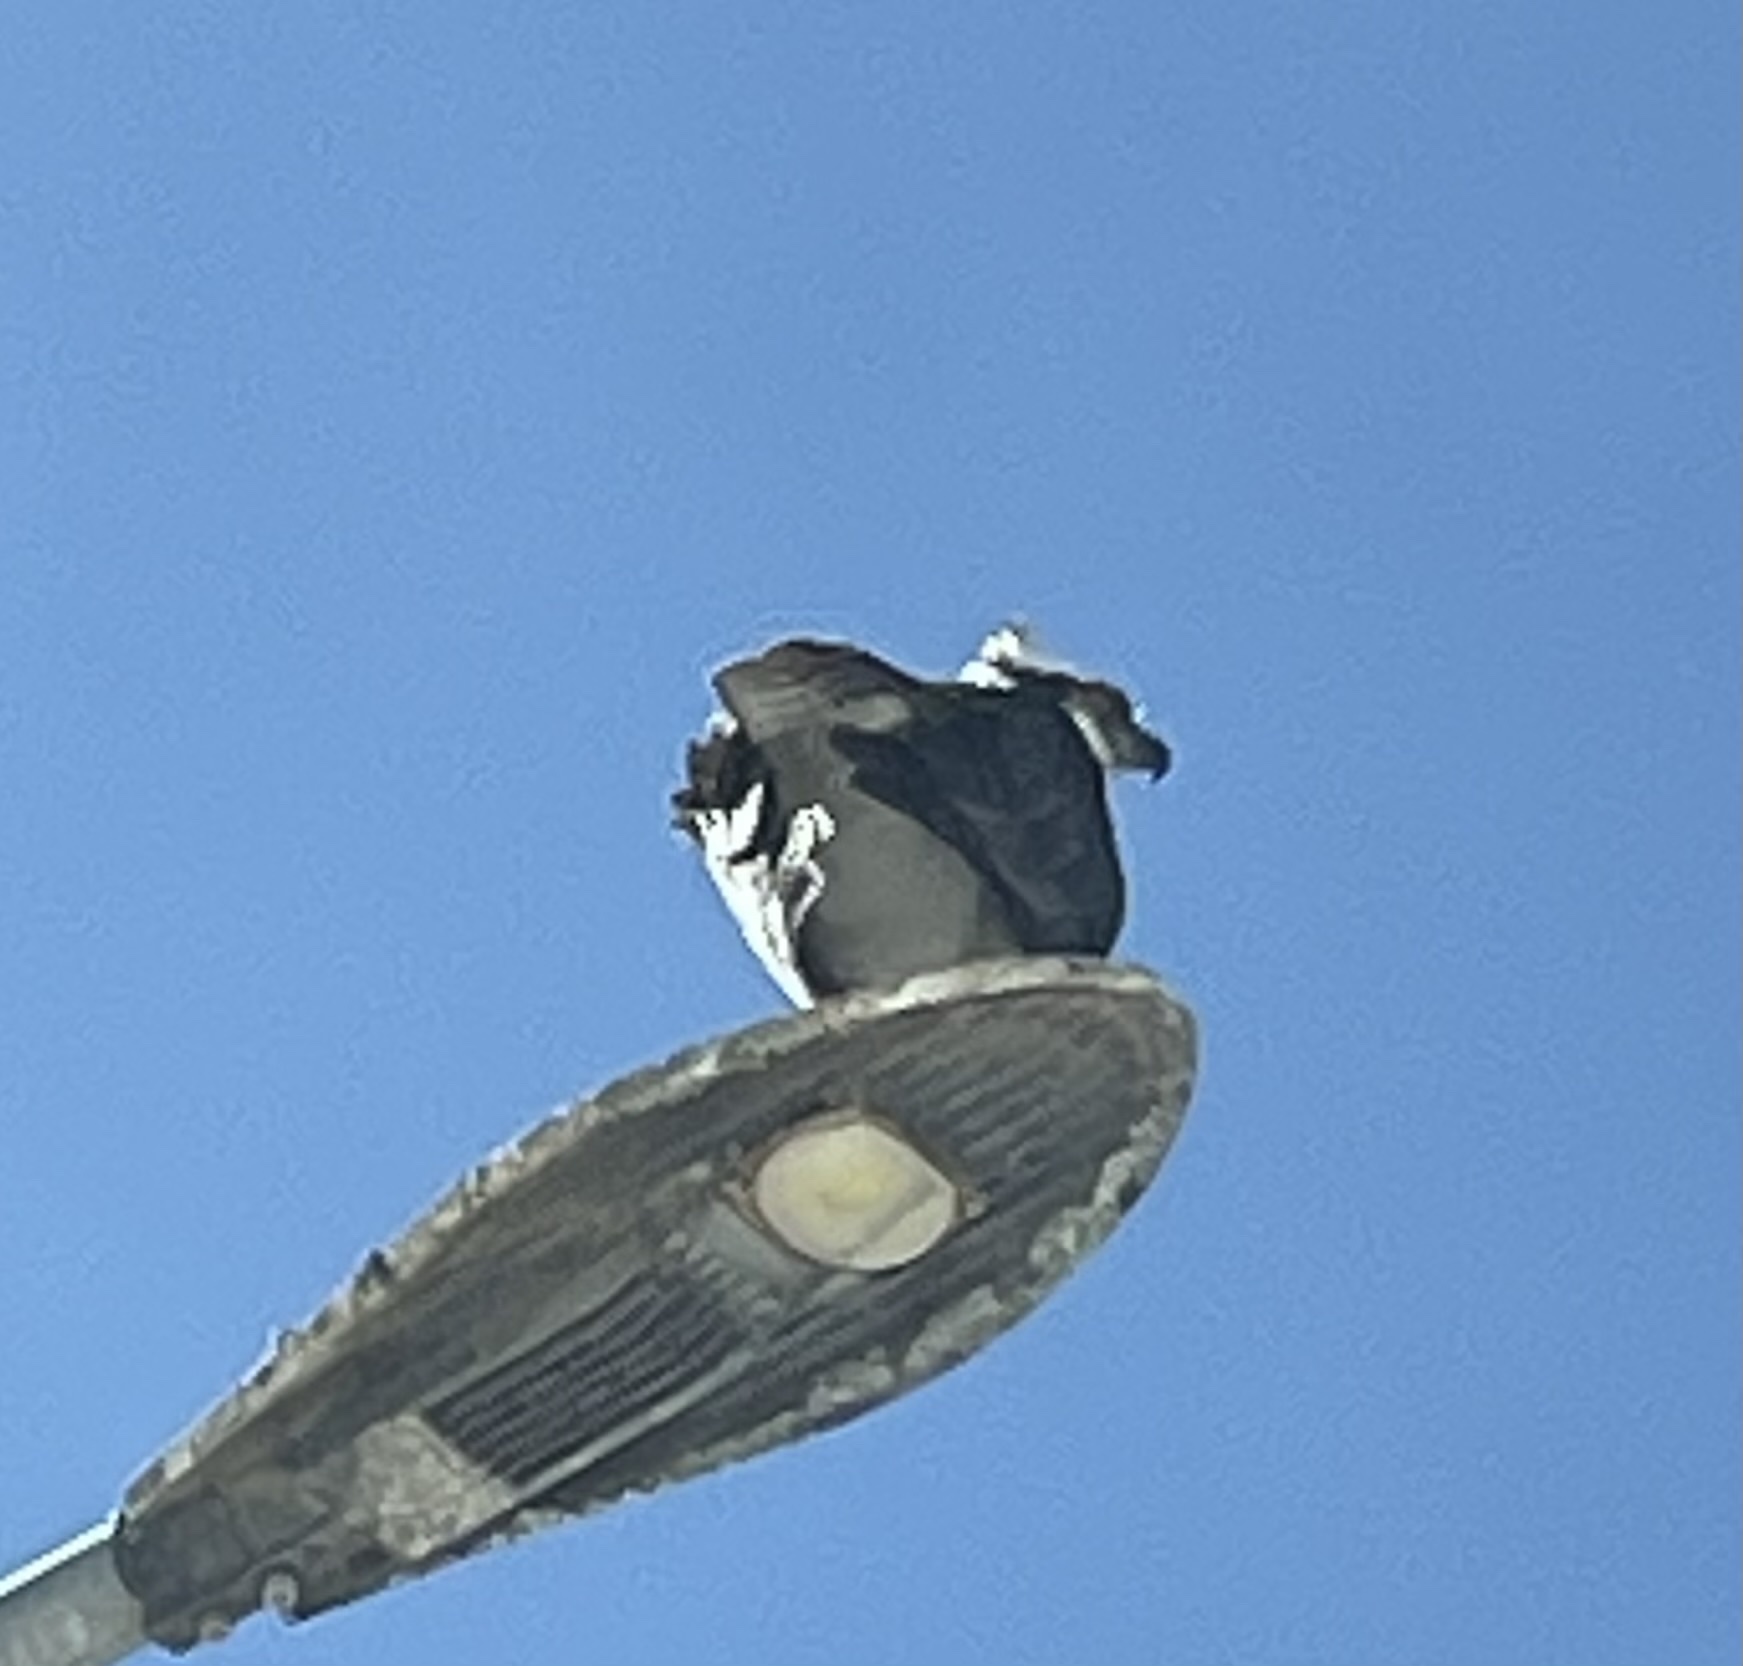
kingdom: Animalia
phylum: Chordata
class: Aves
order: Accipitriformes
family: Pandionidae
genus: Pandion
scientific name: Pandion haliaetus
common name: Osprey
